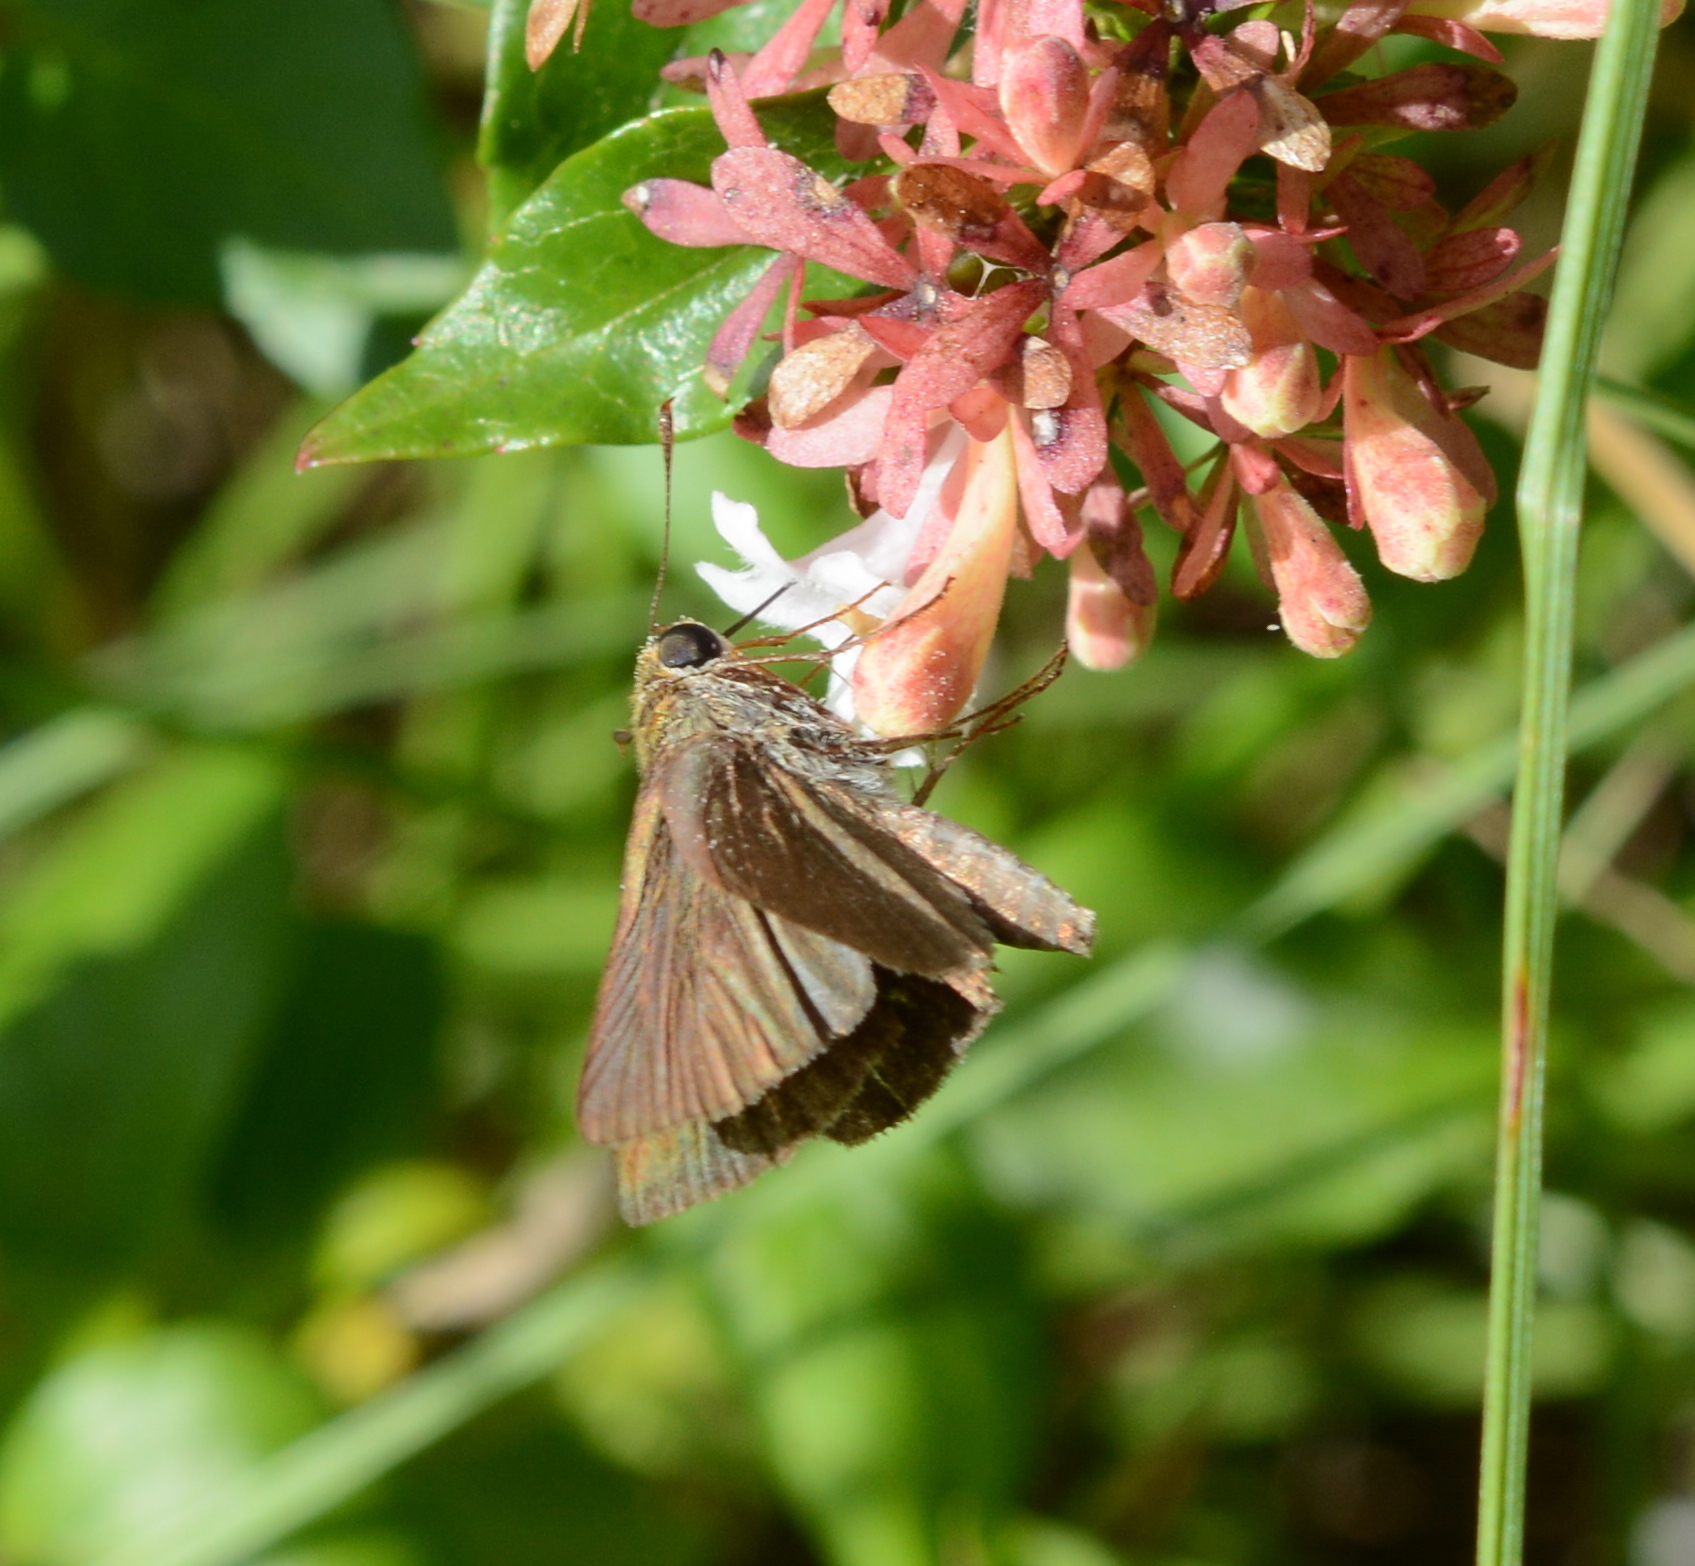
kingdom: Animalia
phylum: Arthropoda
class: Insecta
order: Lepidoptera
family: Hesperiidae
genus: Euphyes
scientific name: Euphyes vestris
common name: Dun skipper
